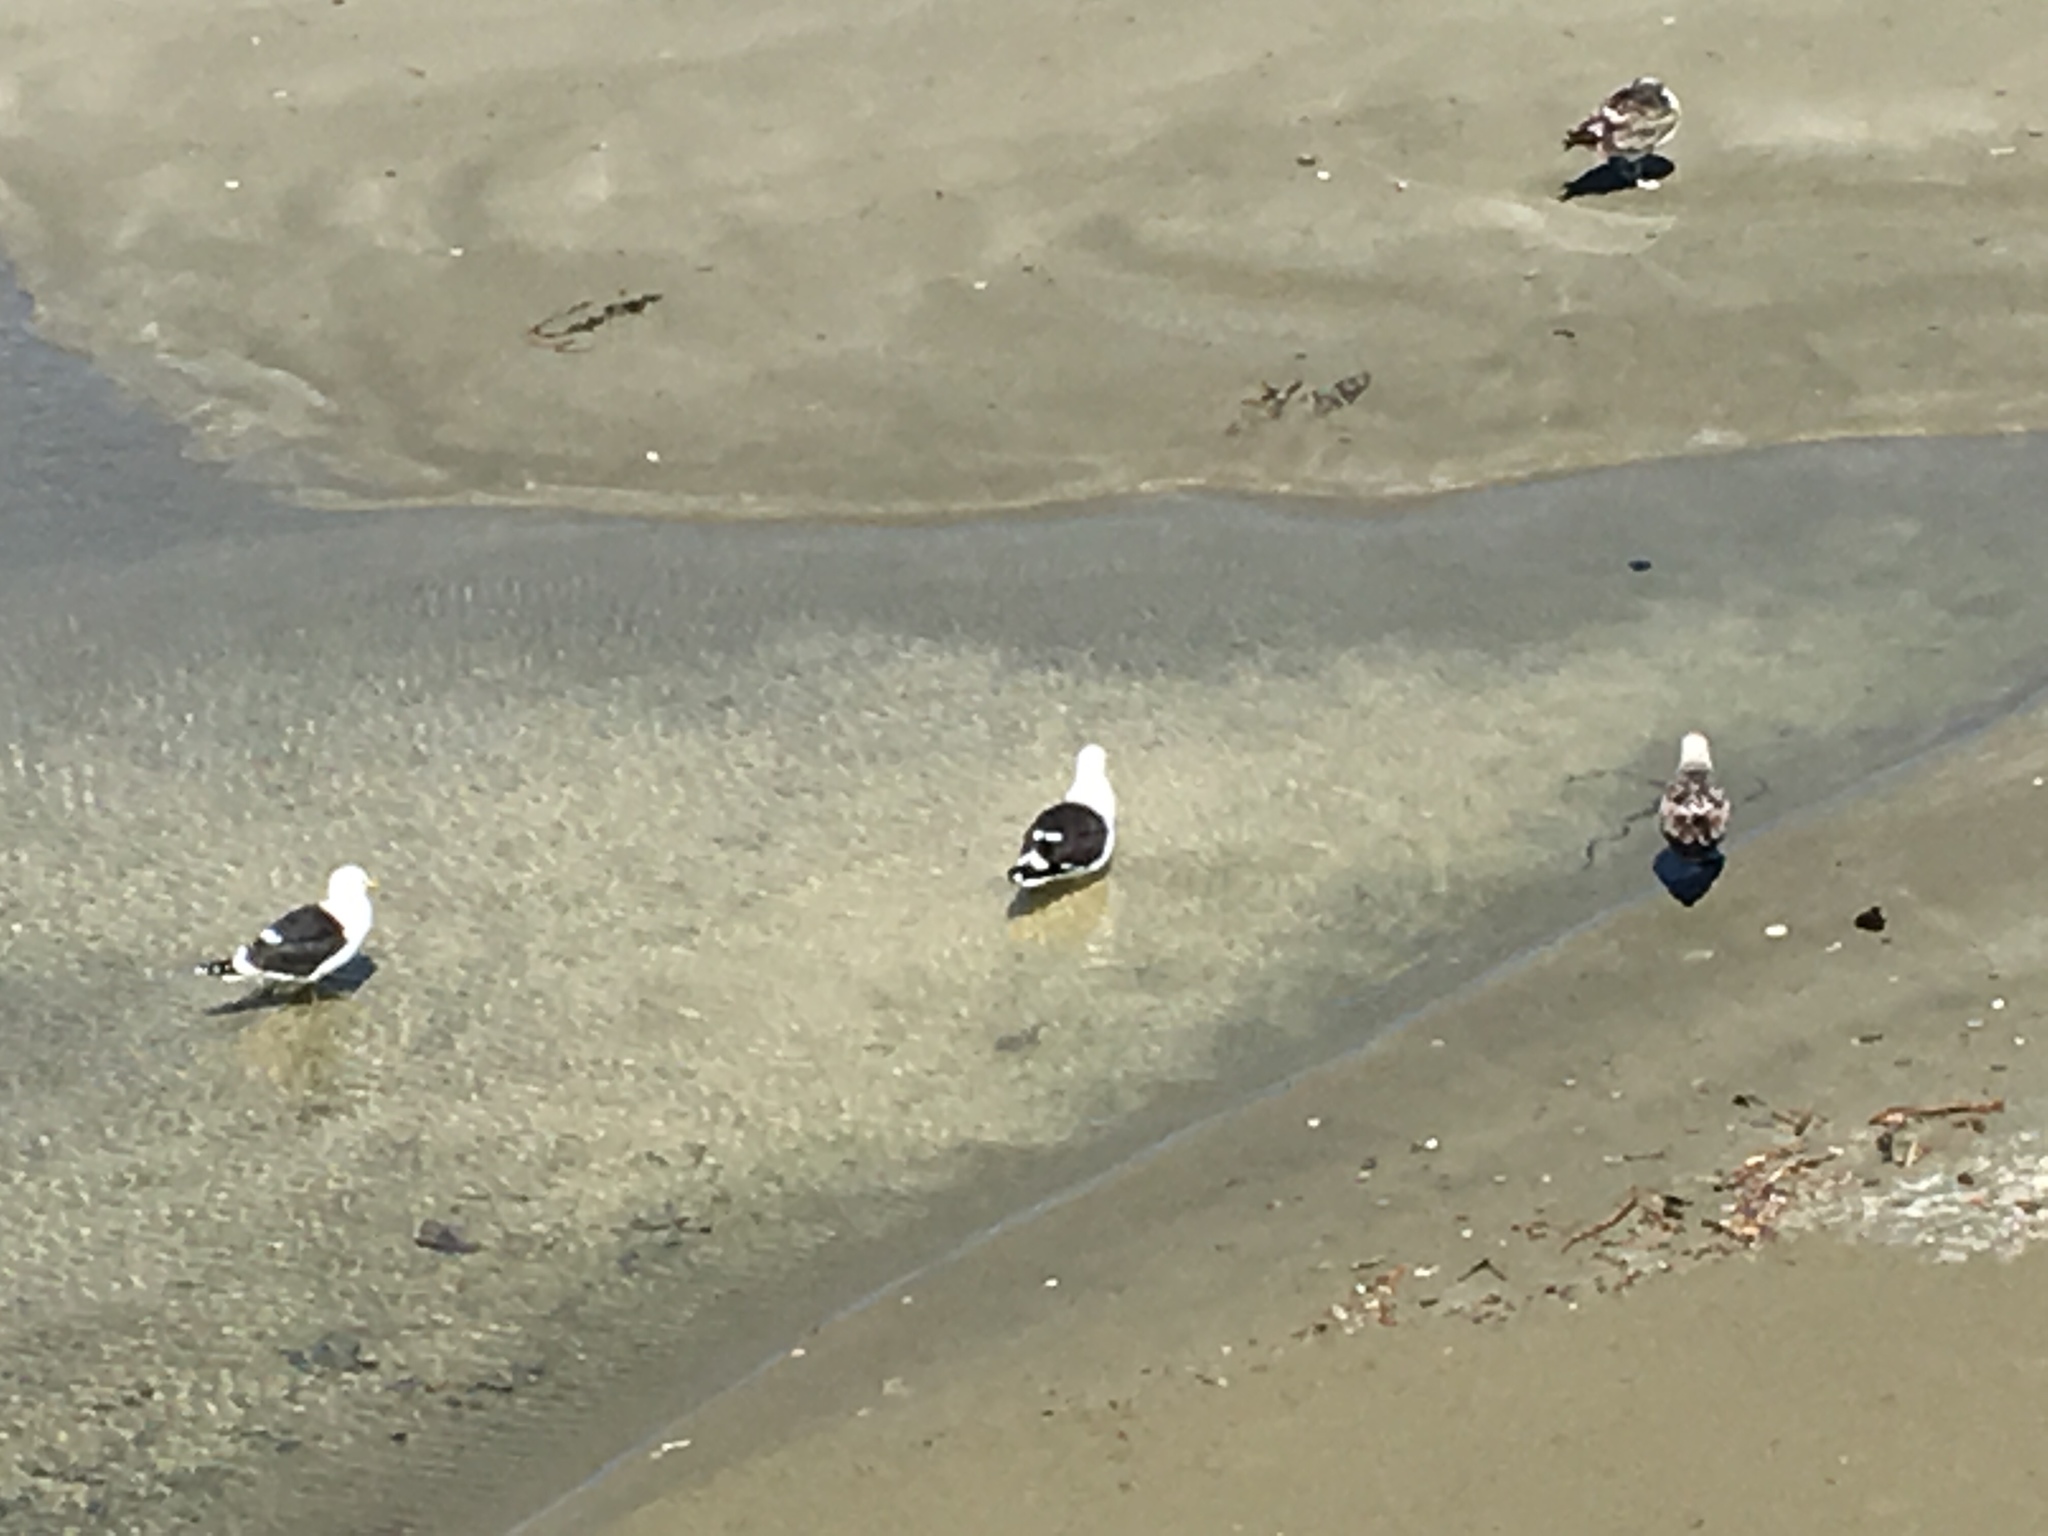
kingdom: Animalia
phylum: Chordata
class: Aves
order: Charadriiformes
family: Laridae
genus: Larus
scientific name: Larus dominicanus
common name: Kelp gull
